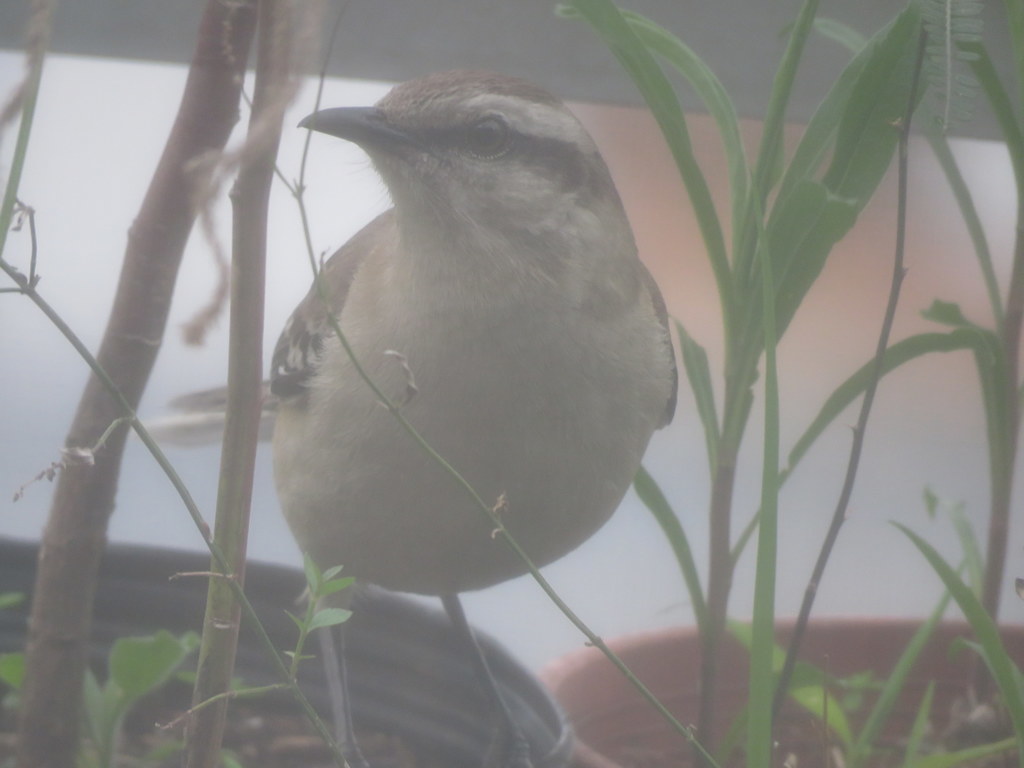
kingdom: Animalia
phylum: Chordata
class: Aves
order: Passeriformes
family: Mimidae
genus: Mimus
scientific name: Mimus saturninus
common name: Chalk-browed mockingbird
